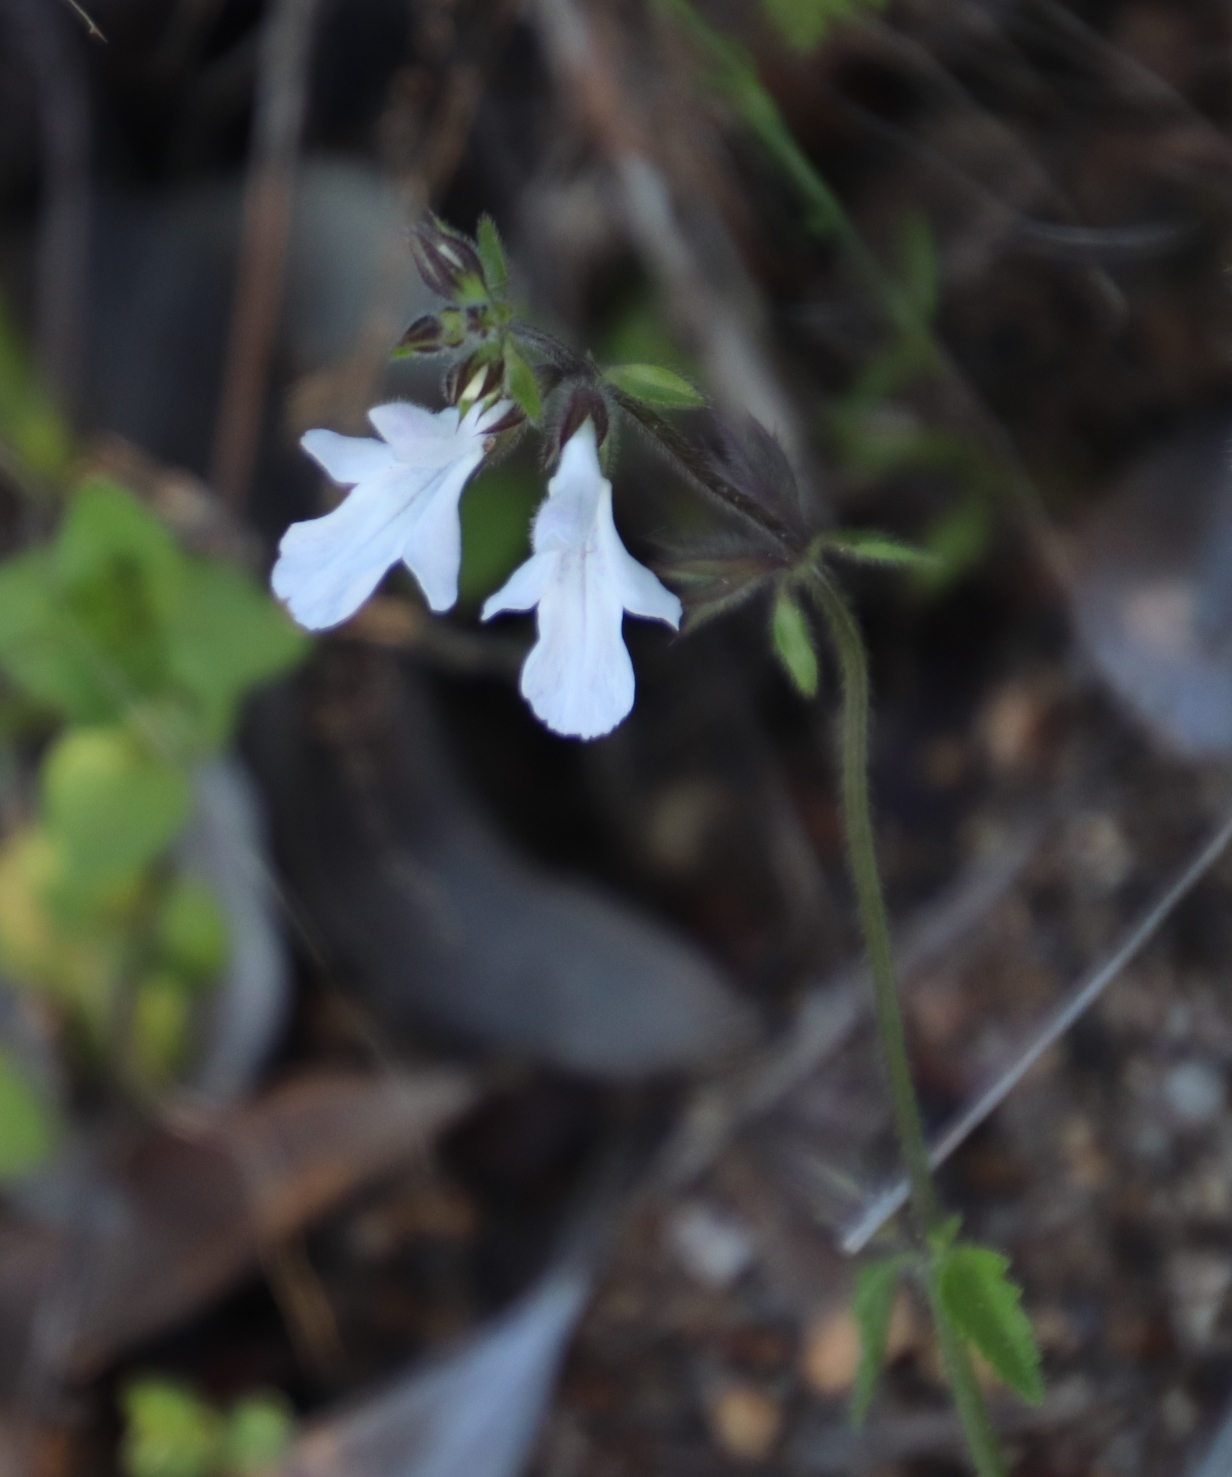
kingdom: Plantae
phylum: Tracheophyta
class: Magnoliopsida
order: Lamiales
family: Lamiaceae
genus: Stachys
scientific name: Stachys aethiopica
